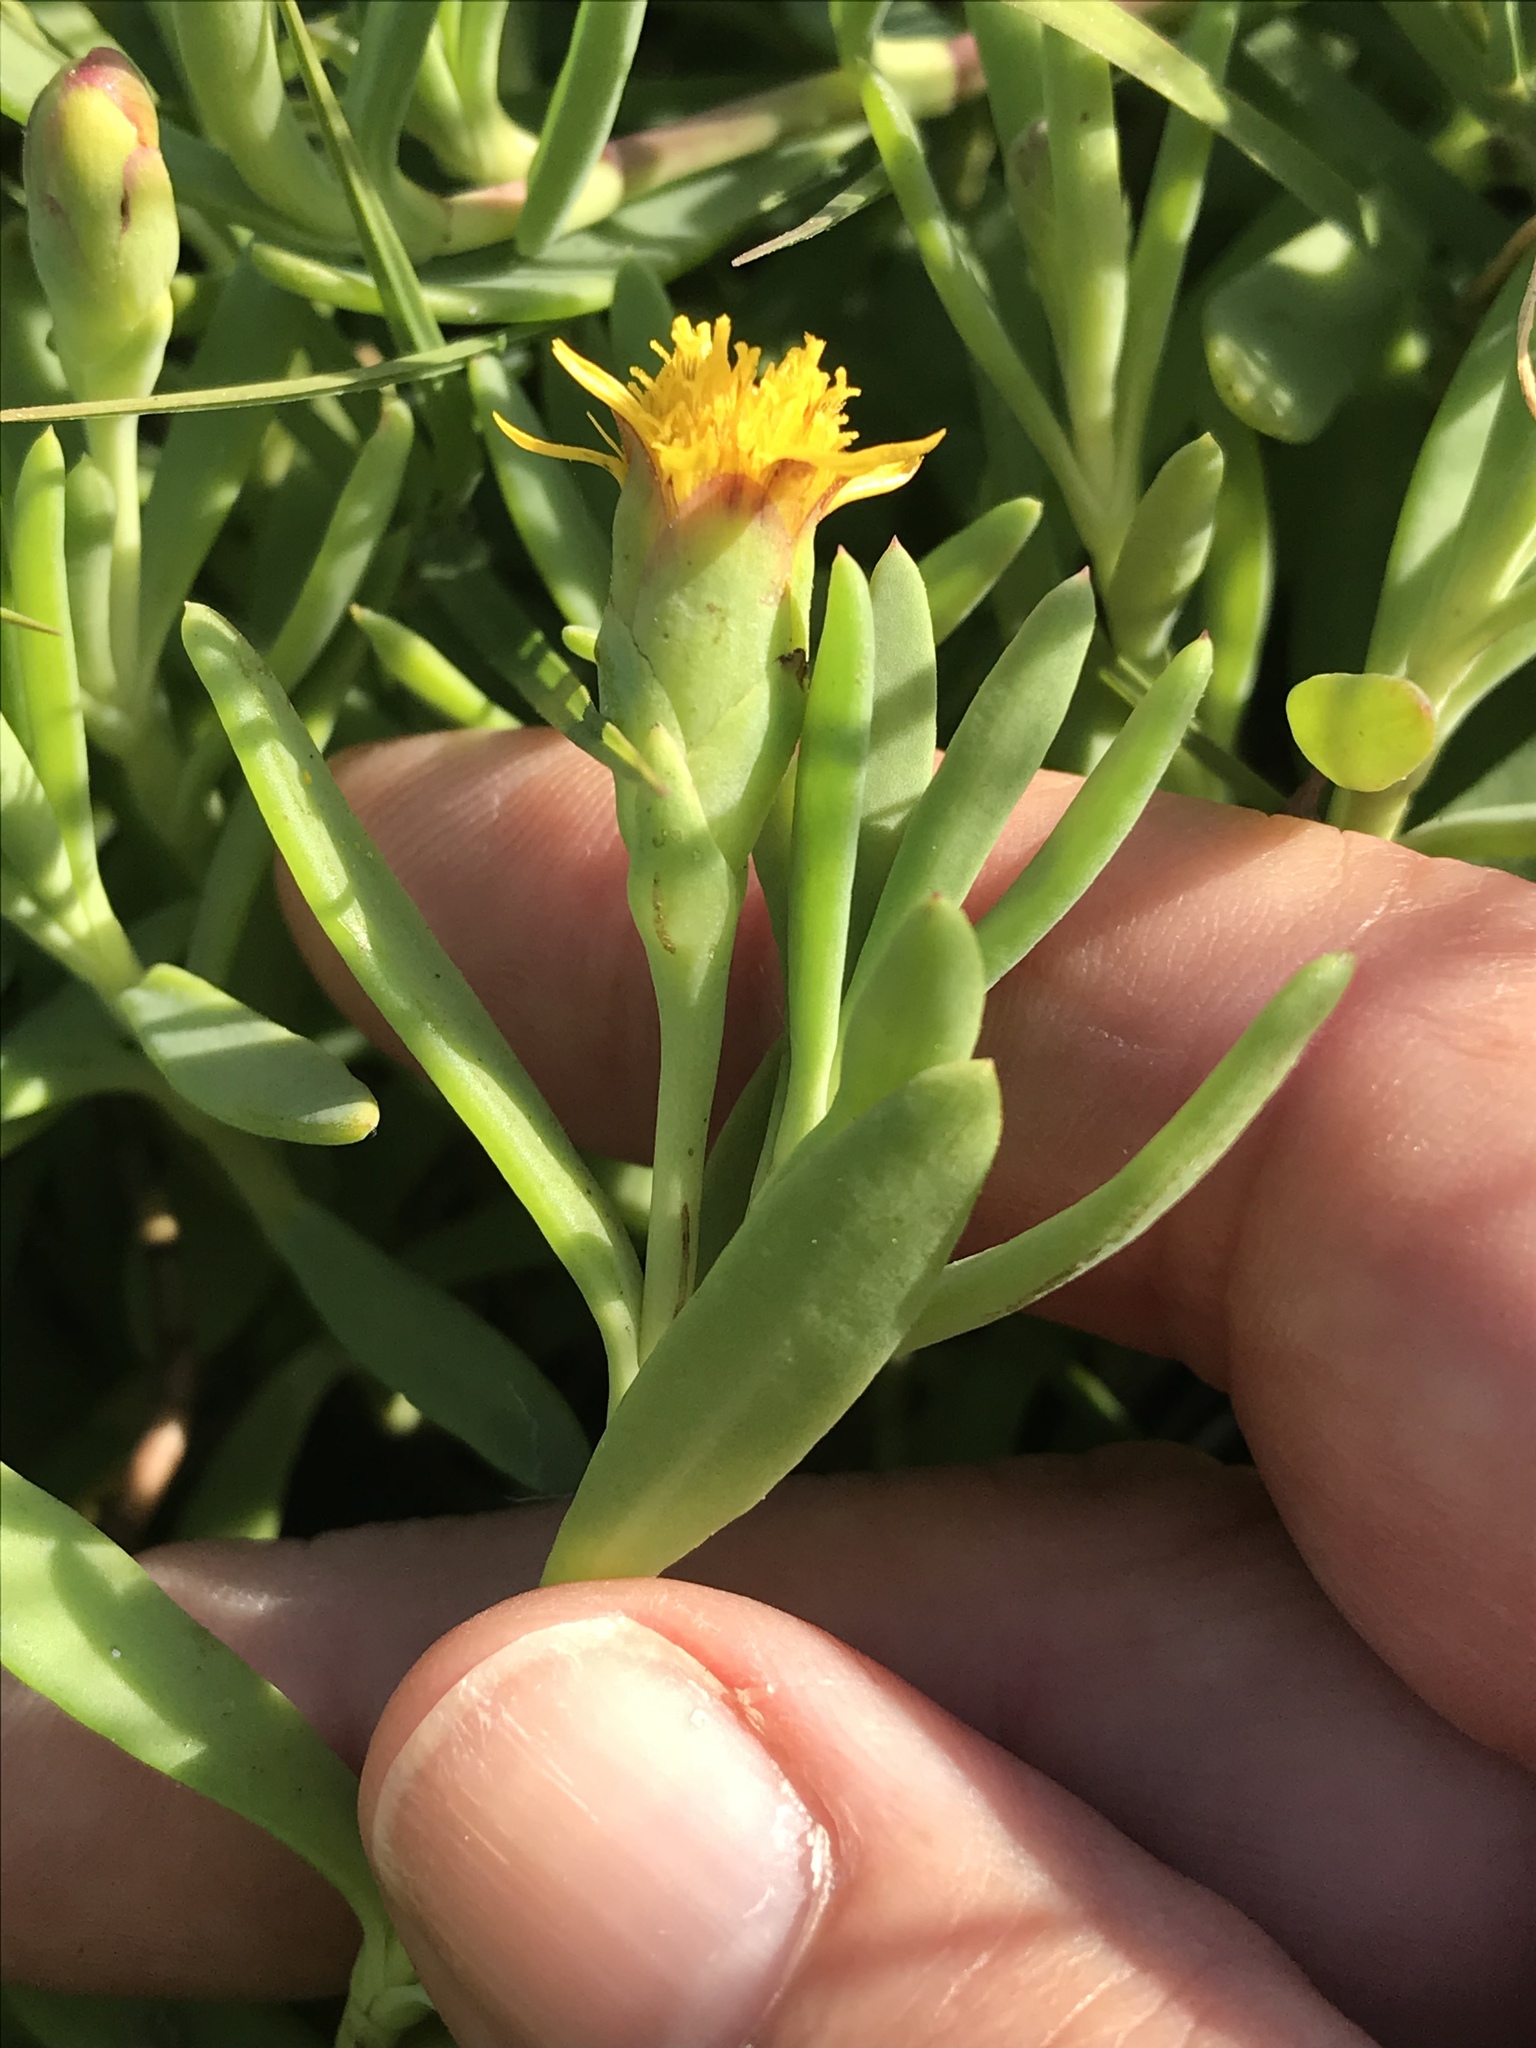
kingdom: Plantae
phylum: Tracheophyta
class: Magnoliopsida
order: Asterales
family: Asteraceae
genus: Jaumea
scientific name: Jaumea carnosa
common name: Fleshy jaumea
